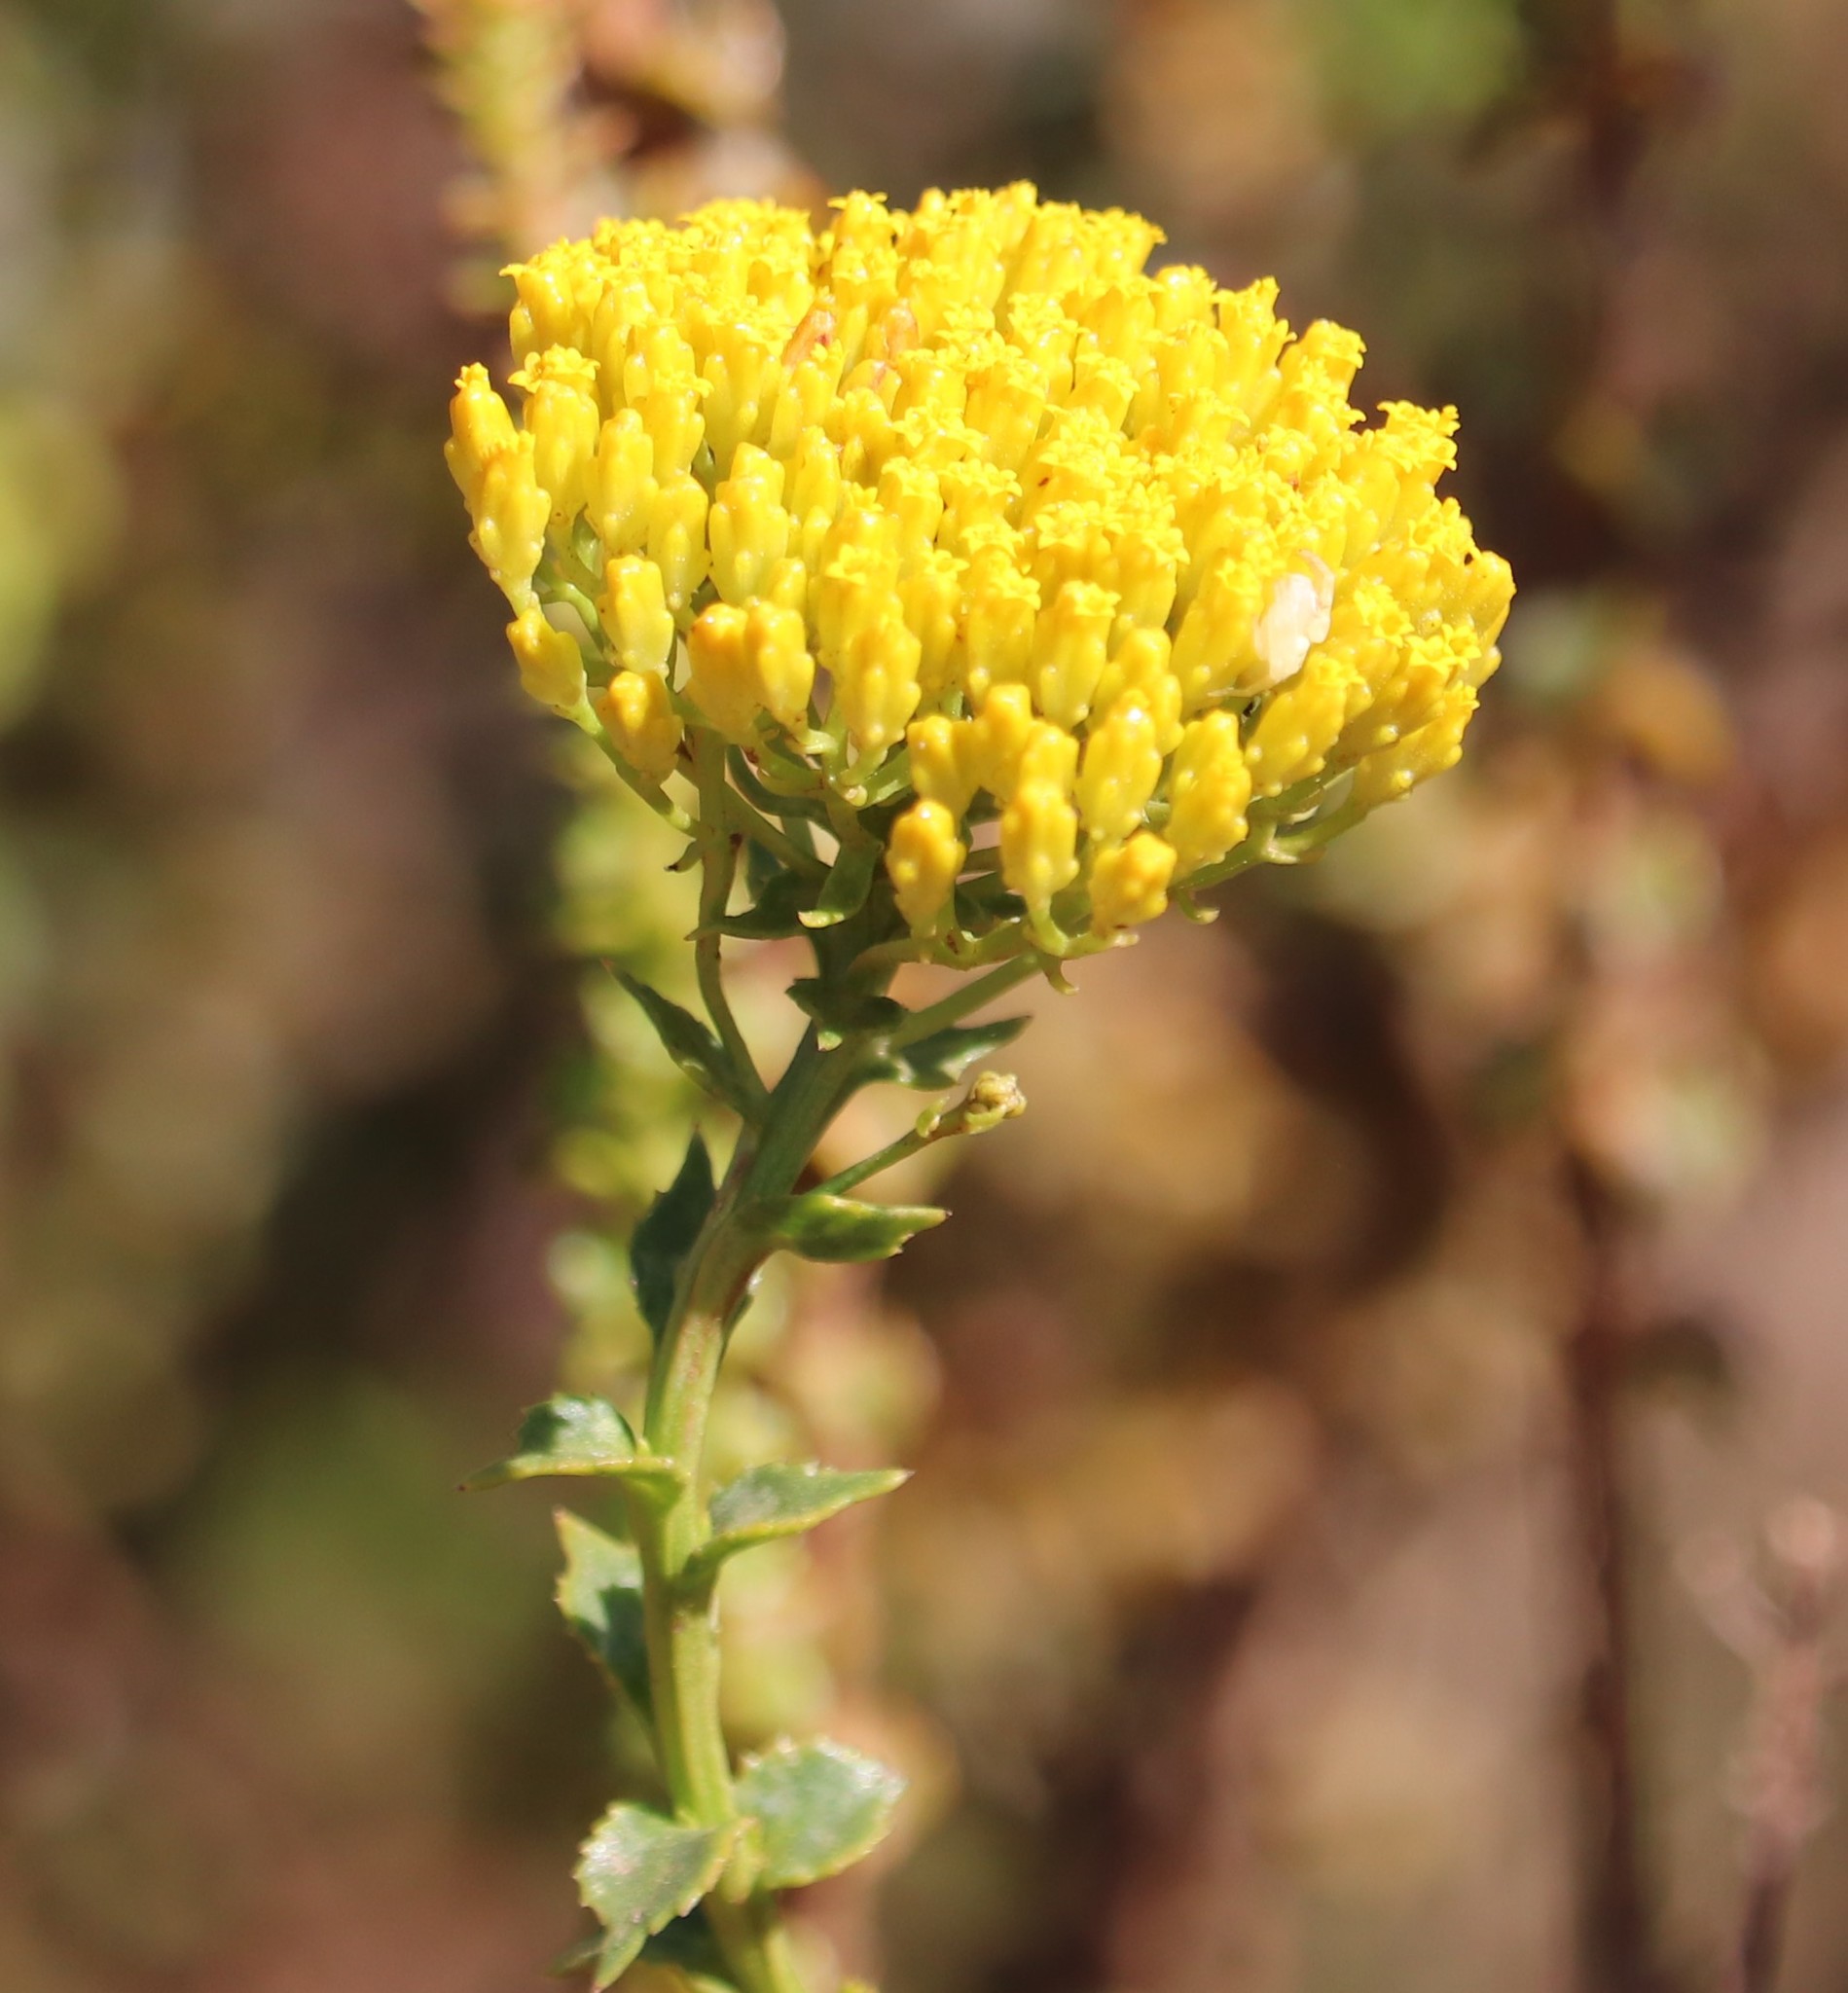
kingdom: Plantae
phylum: Tracheophyta
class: Magnoliopsida
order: Asterales
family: Asteraceae
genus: Athanasia
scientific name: Athanasia dentata
